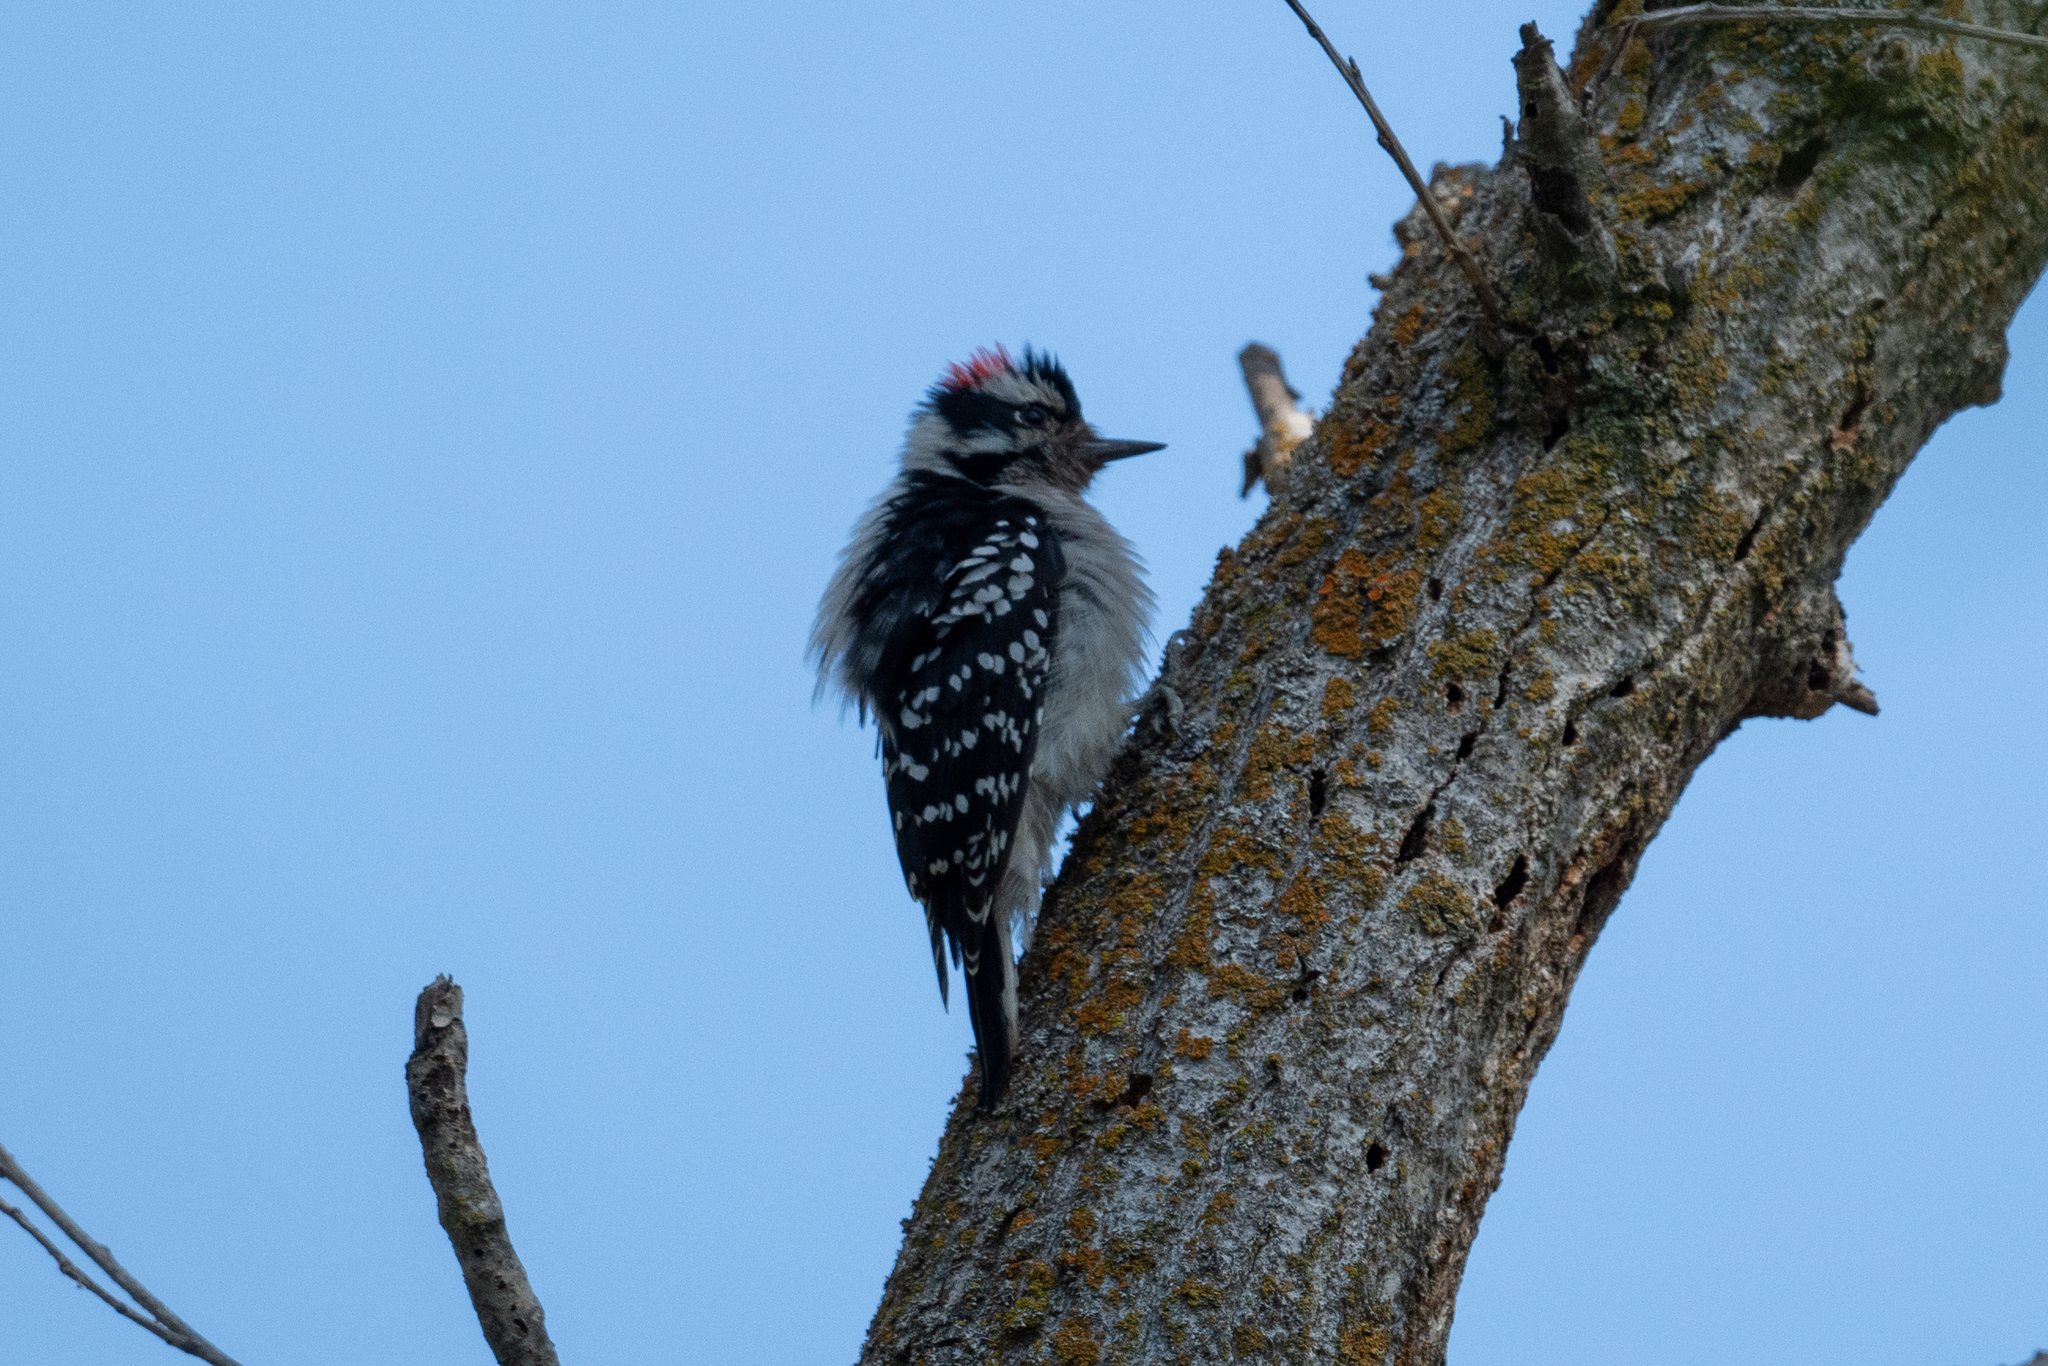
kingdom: Animalia
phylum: Chordata
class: Aves
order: Piciformes
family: Picidae
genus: Dryobates
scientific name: Dryobates pubescens
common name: Downy woodpecker
